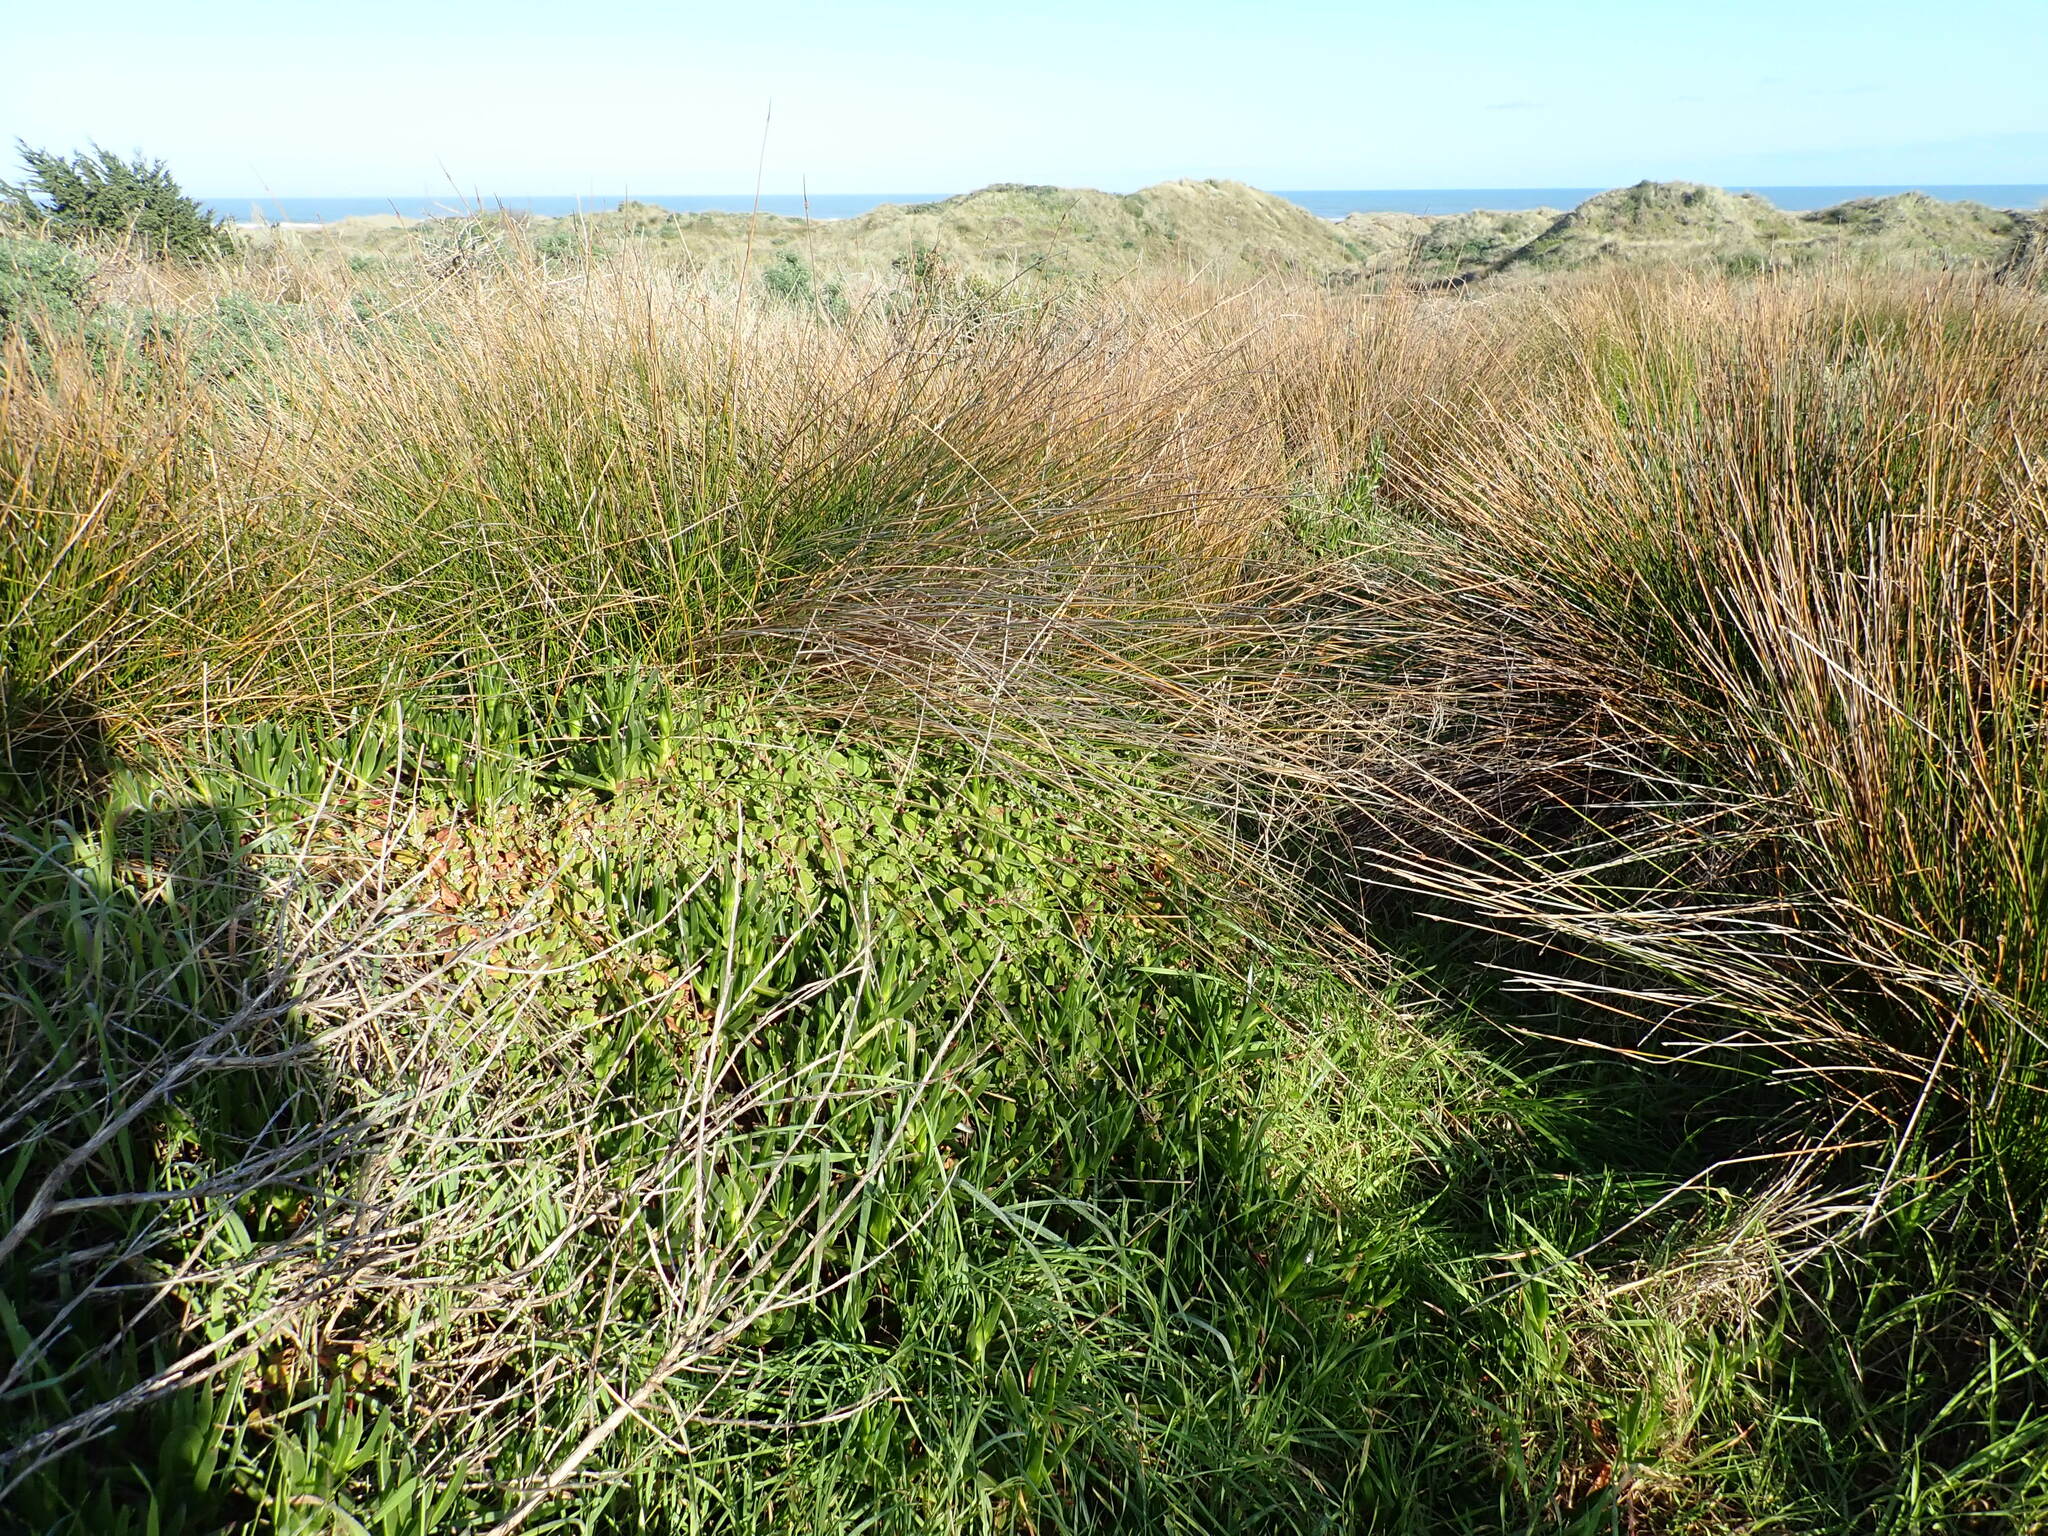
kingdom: Plantae
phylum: Tracheophyta
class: Magnoliopsida
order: Caryophyllales
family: Aizoaceae
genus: Tetragonia
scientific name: Tetragonia implexicoma
